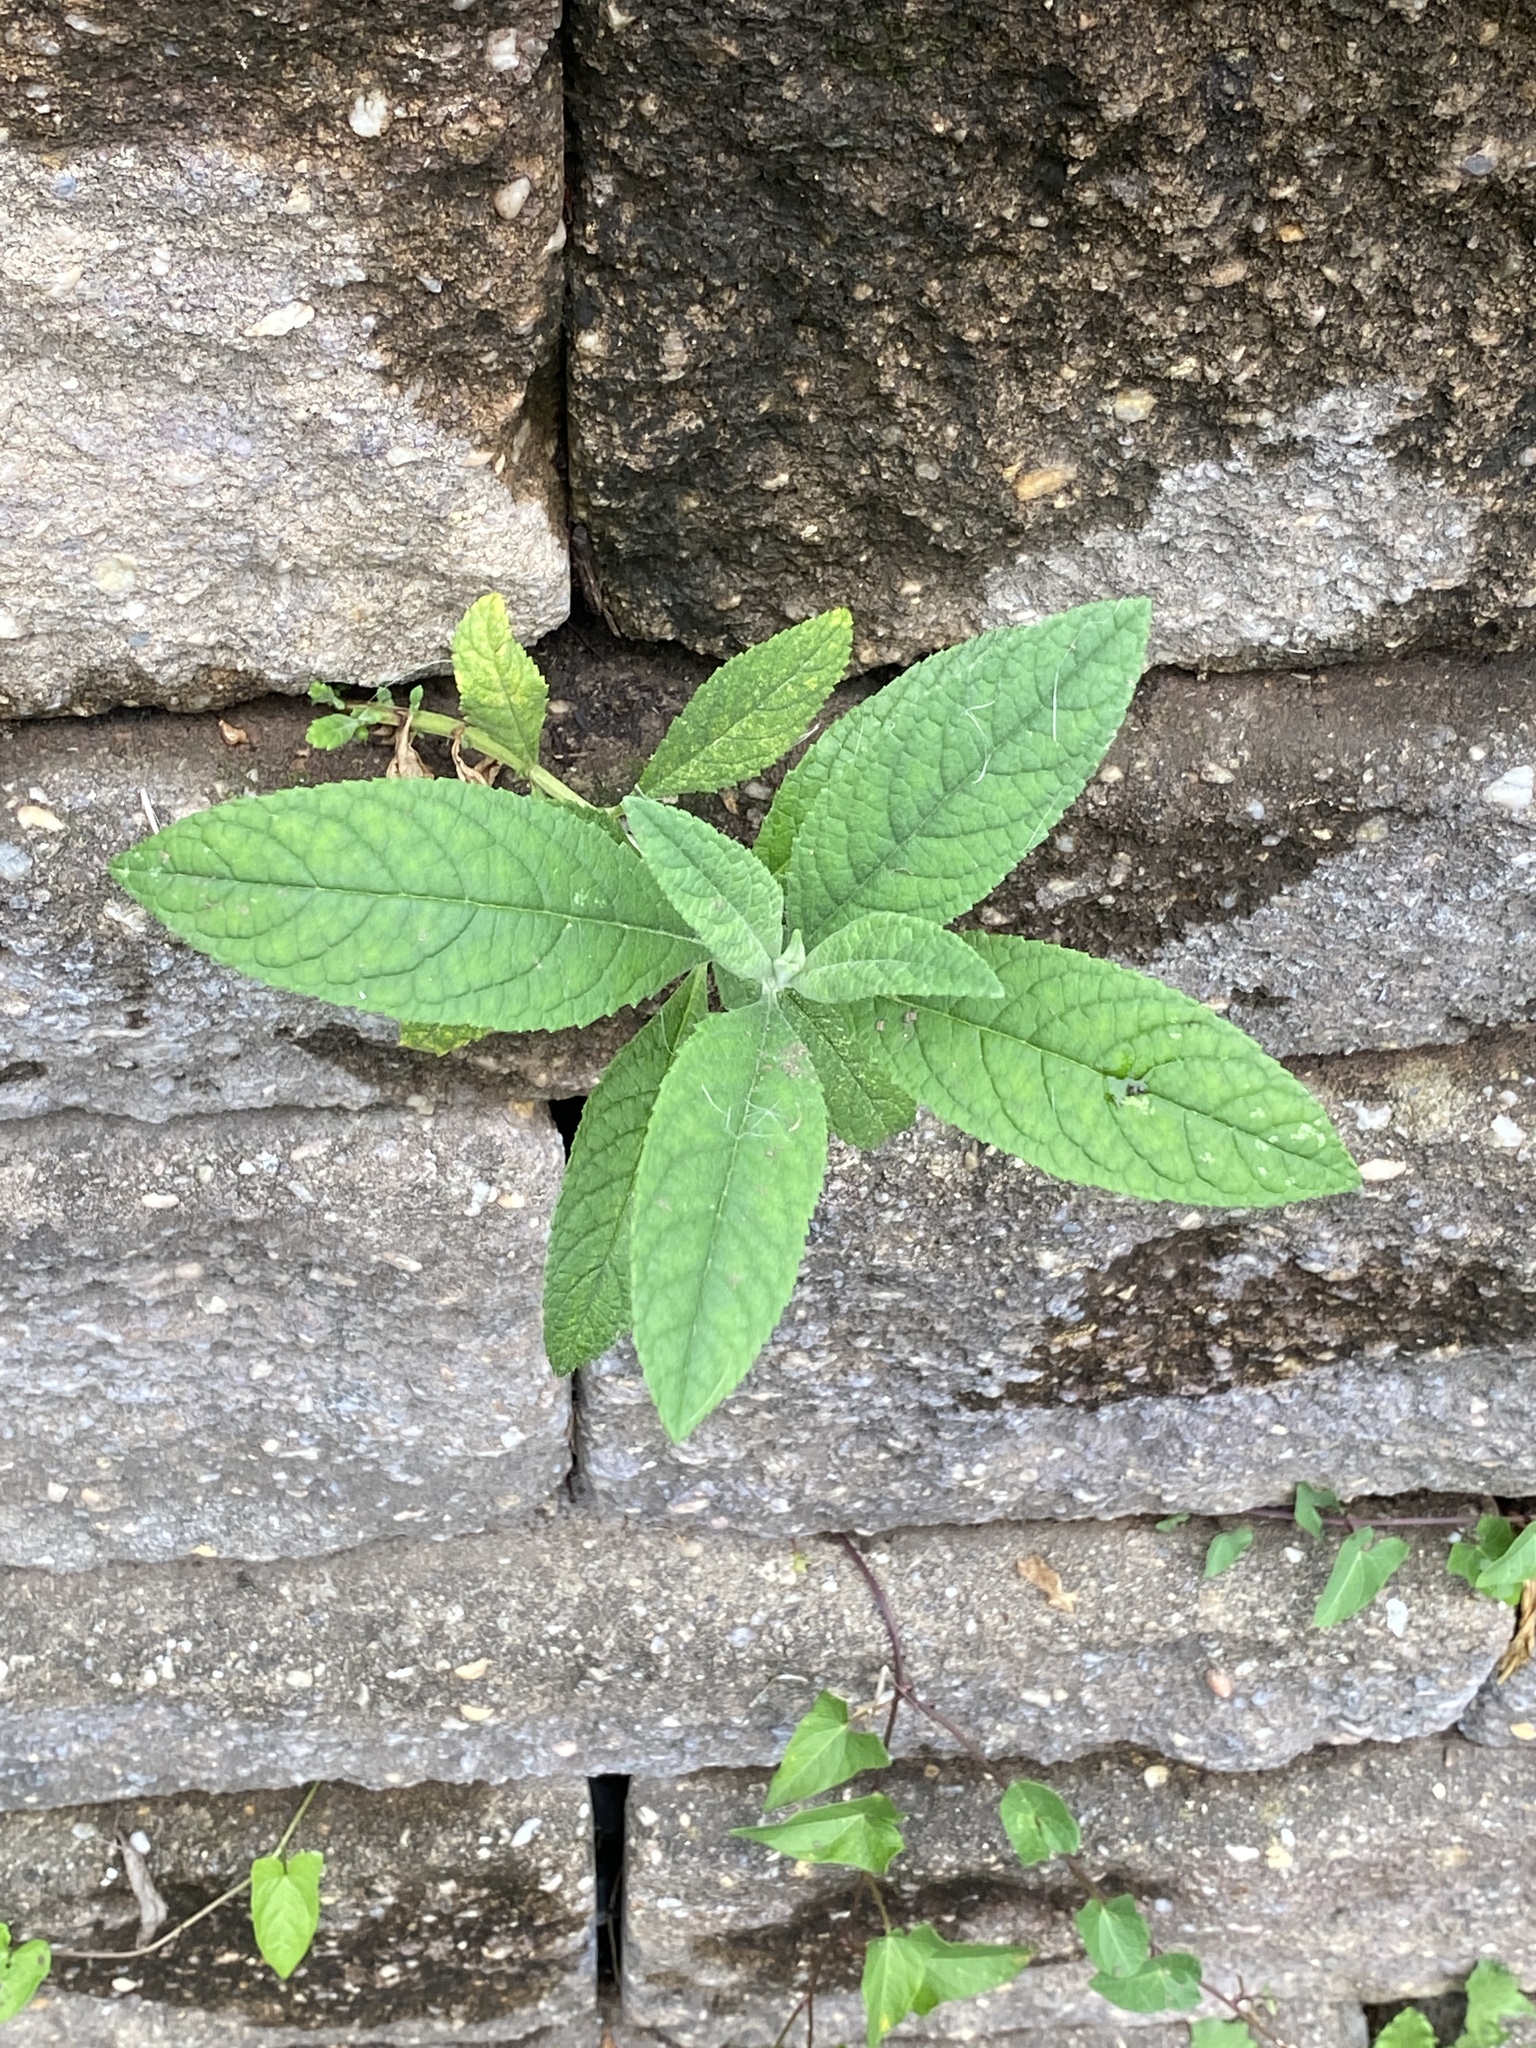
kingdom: Plantae
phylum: Tracheophyta
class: Magnoliopsida
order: Lamiales
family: Scrophulariaceae
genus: Buddleja
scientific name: Buddleja davidii
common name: Butterfly-bush
